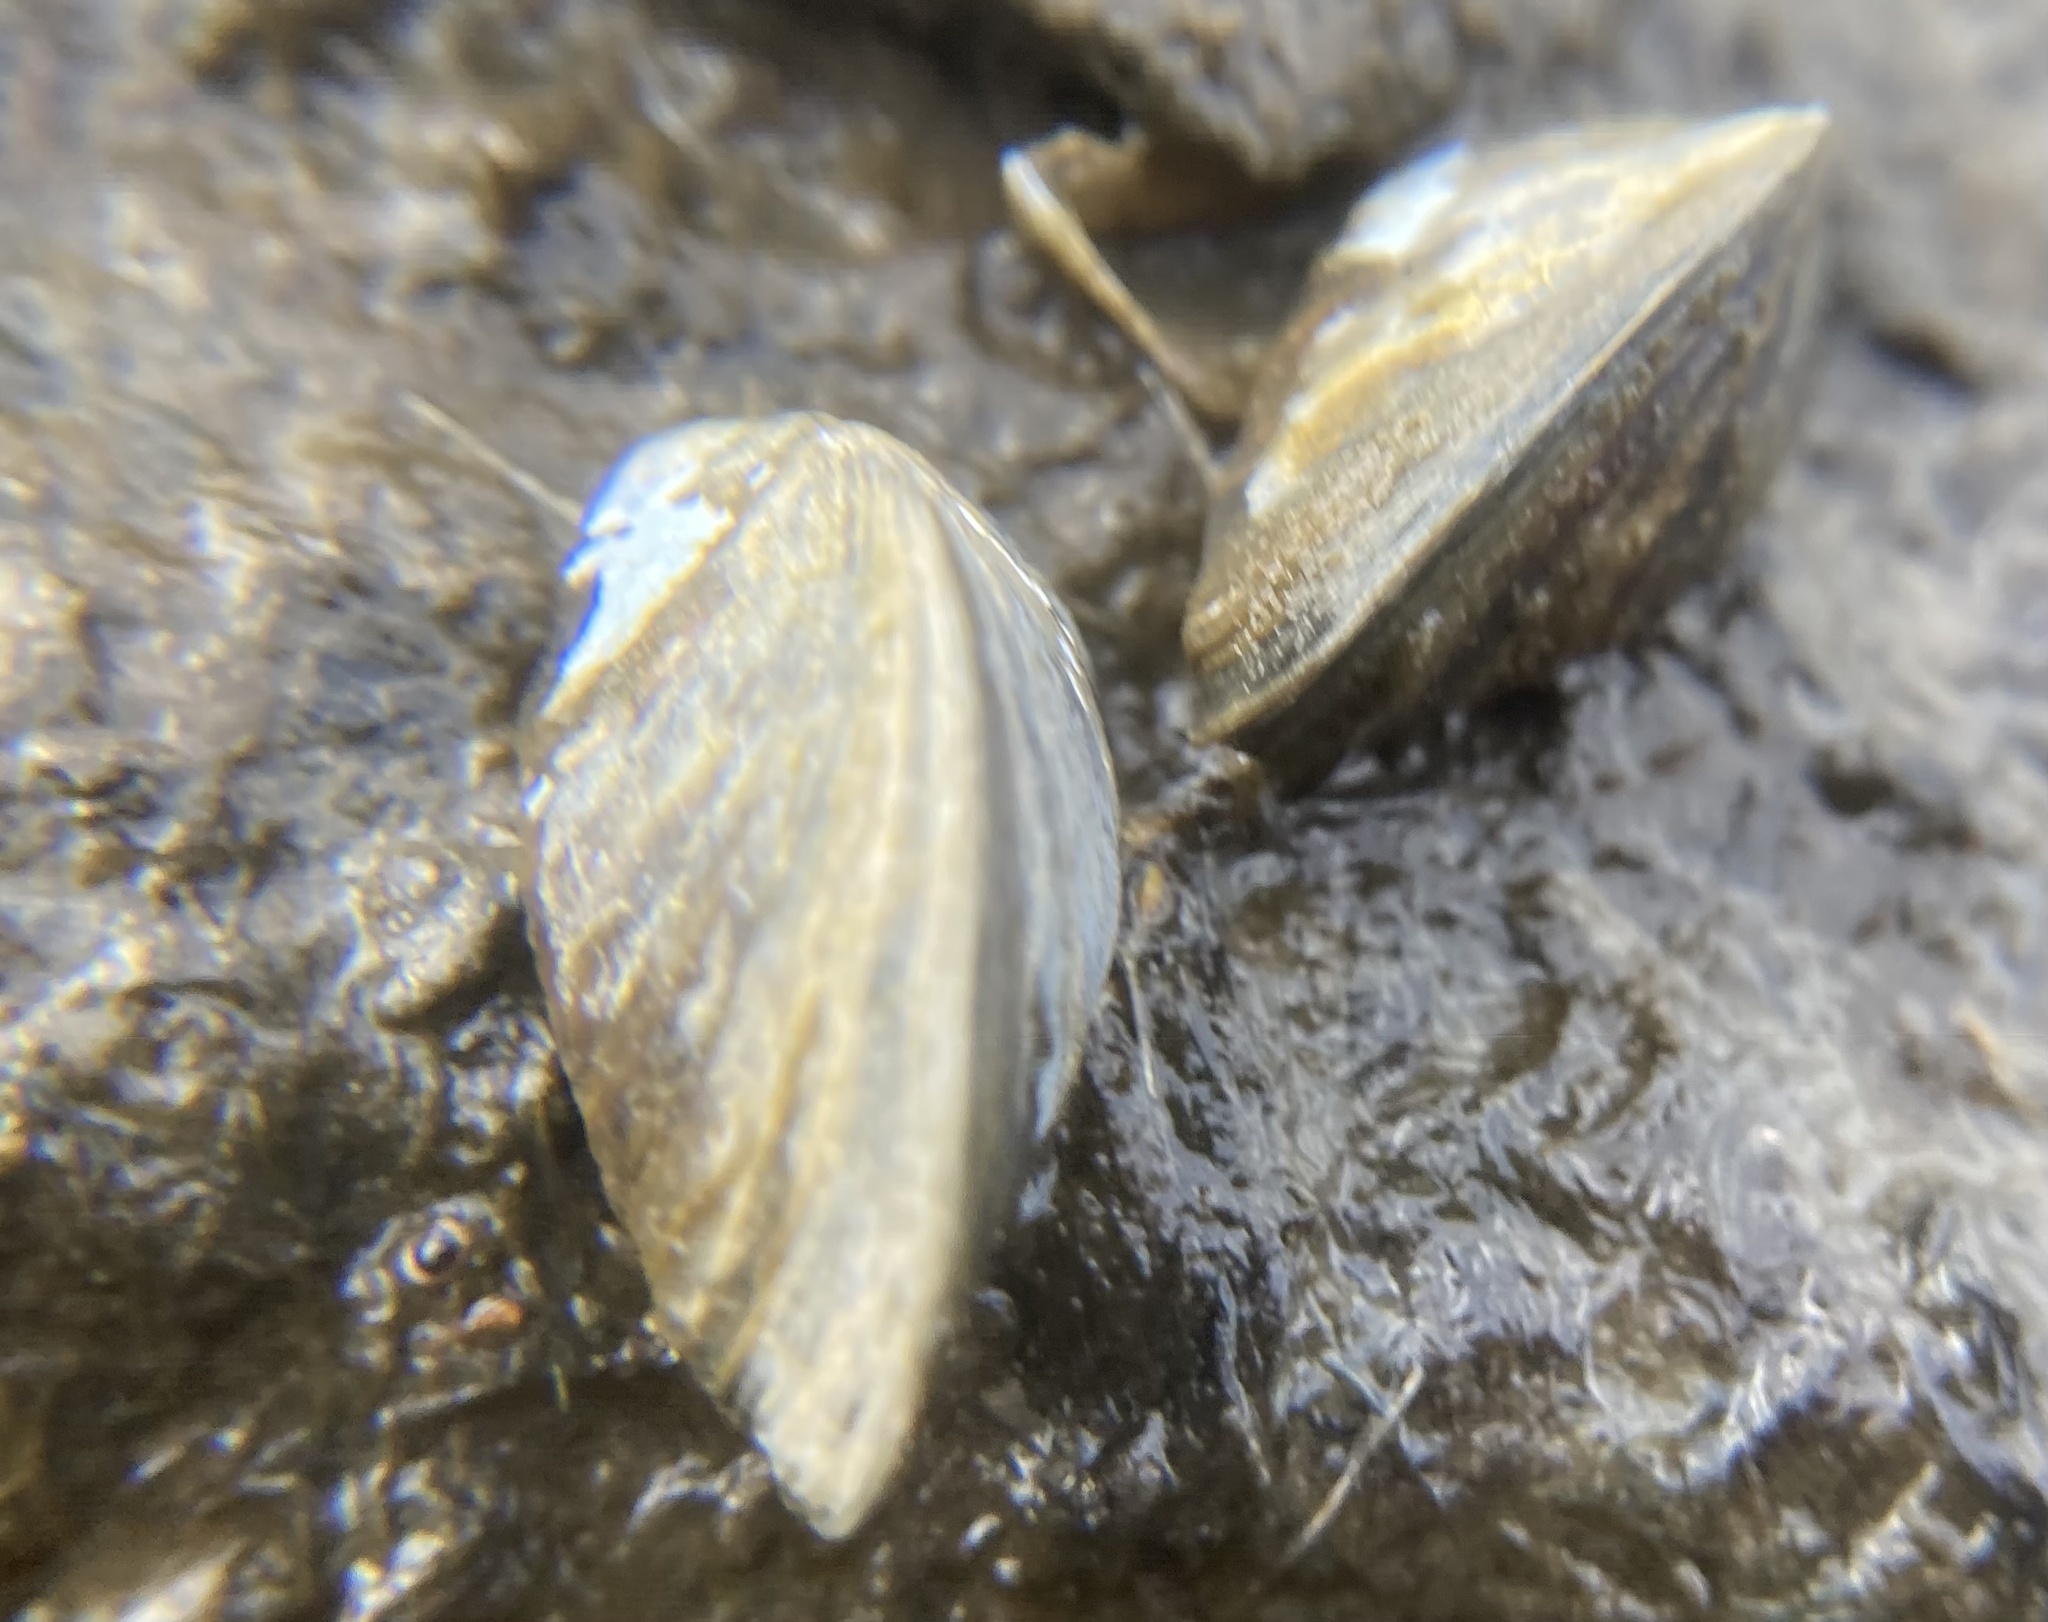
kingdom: Animalia
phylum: Mollusca
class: Bivalvia
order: Myida
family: Dreissenidae
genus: Dreissena
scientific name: Dreissena polymorpha
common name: Zebra mussel
